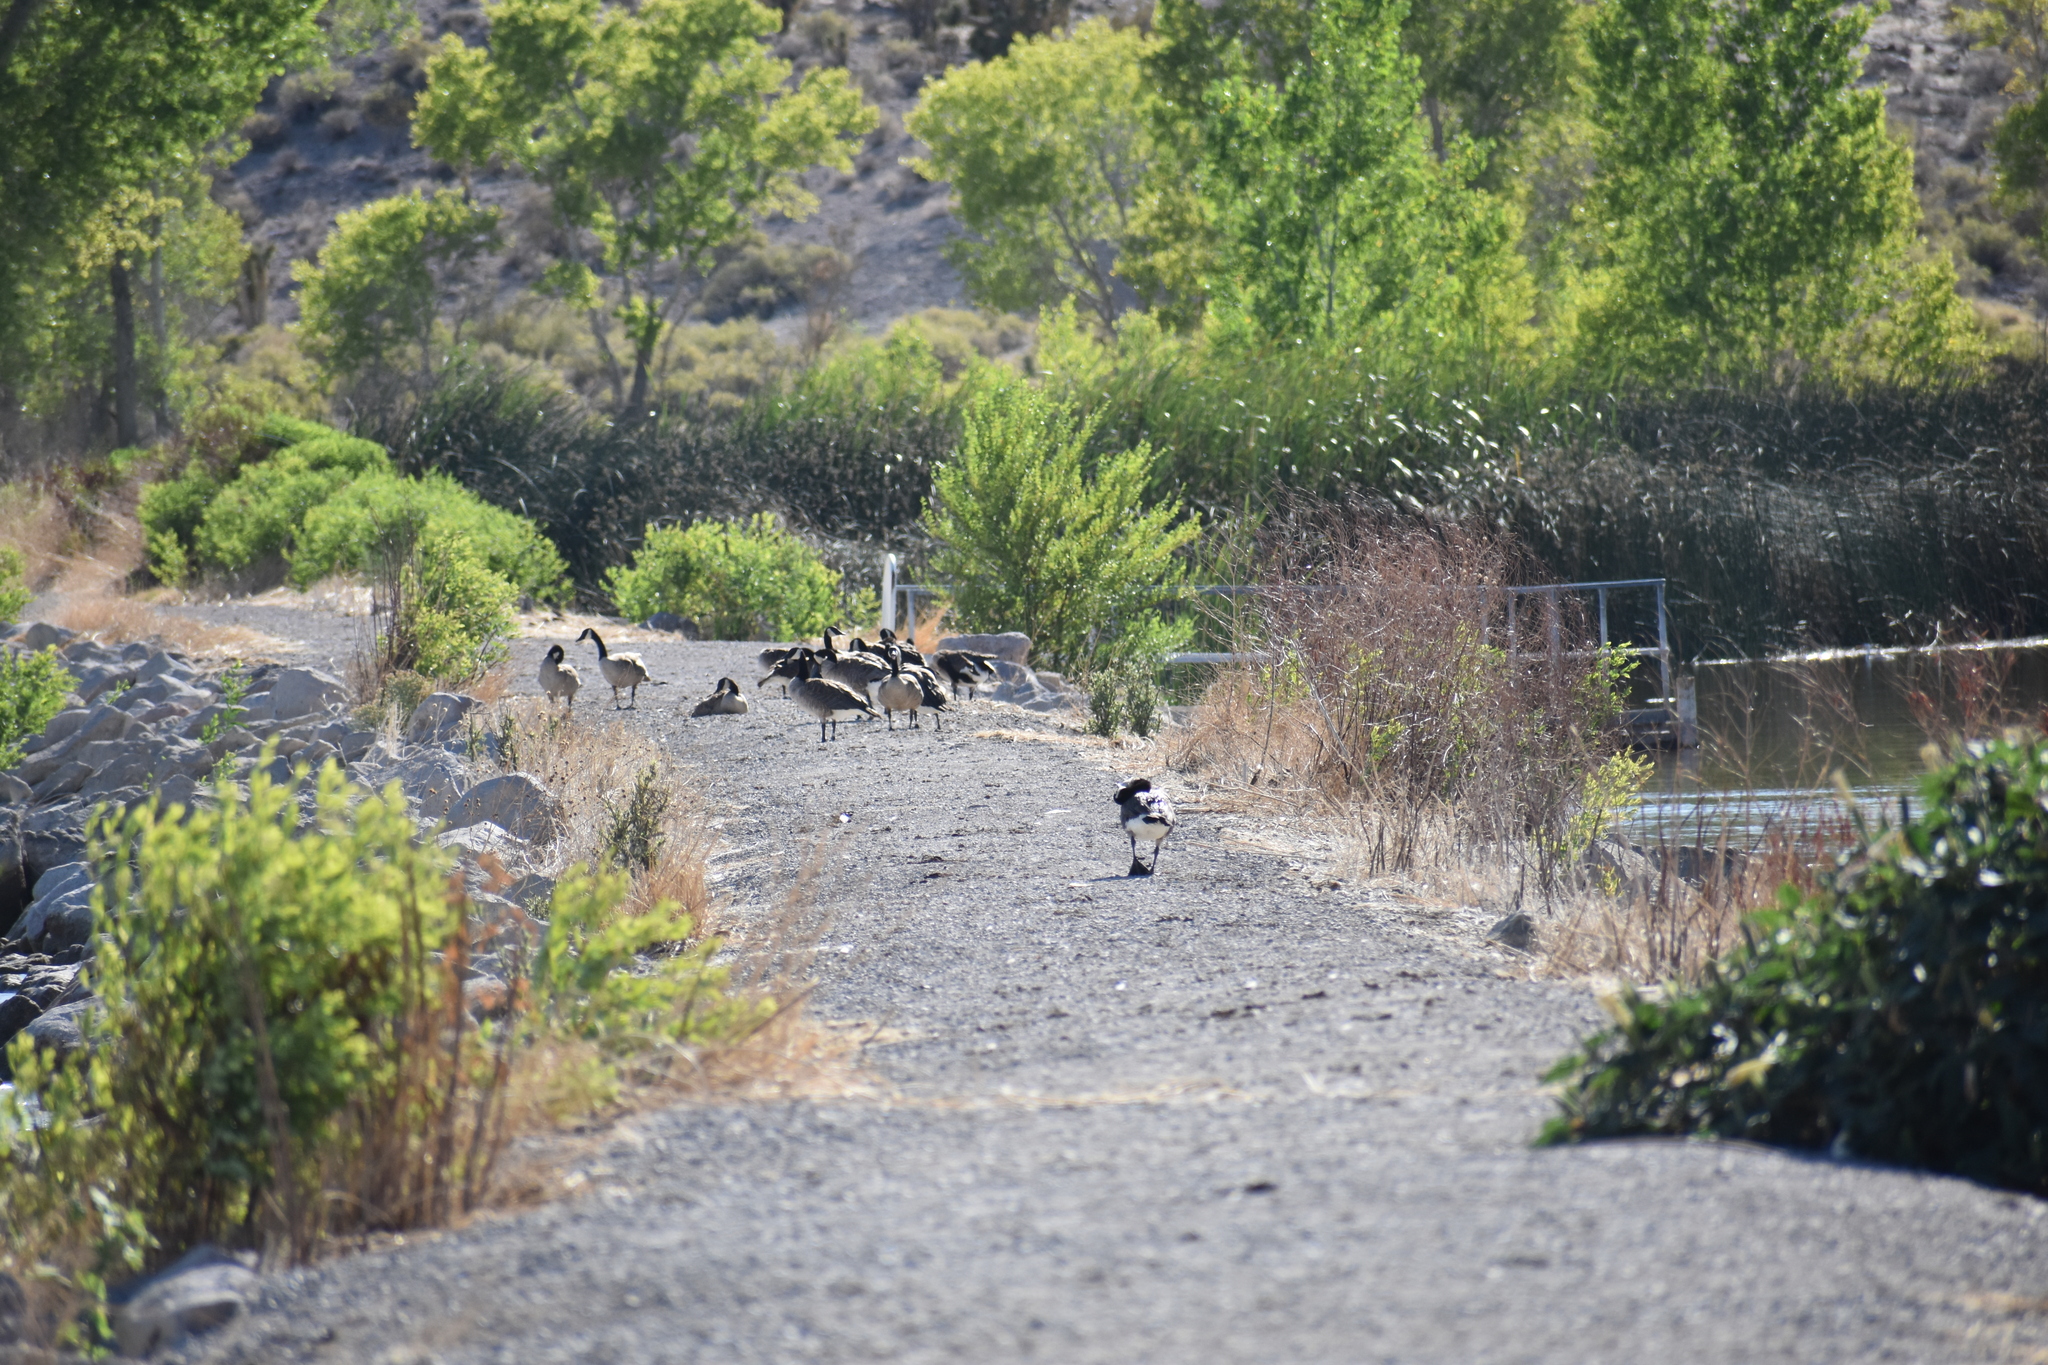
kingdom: Animalia
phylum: Chordata
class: Aves
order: Anseriformes
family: Anatidae
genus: Branta
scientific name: Branta canadensis
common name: Canada goose
